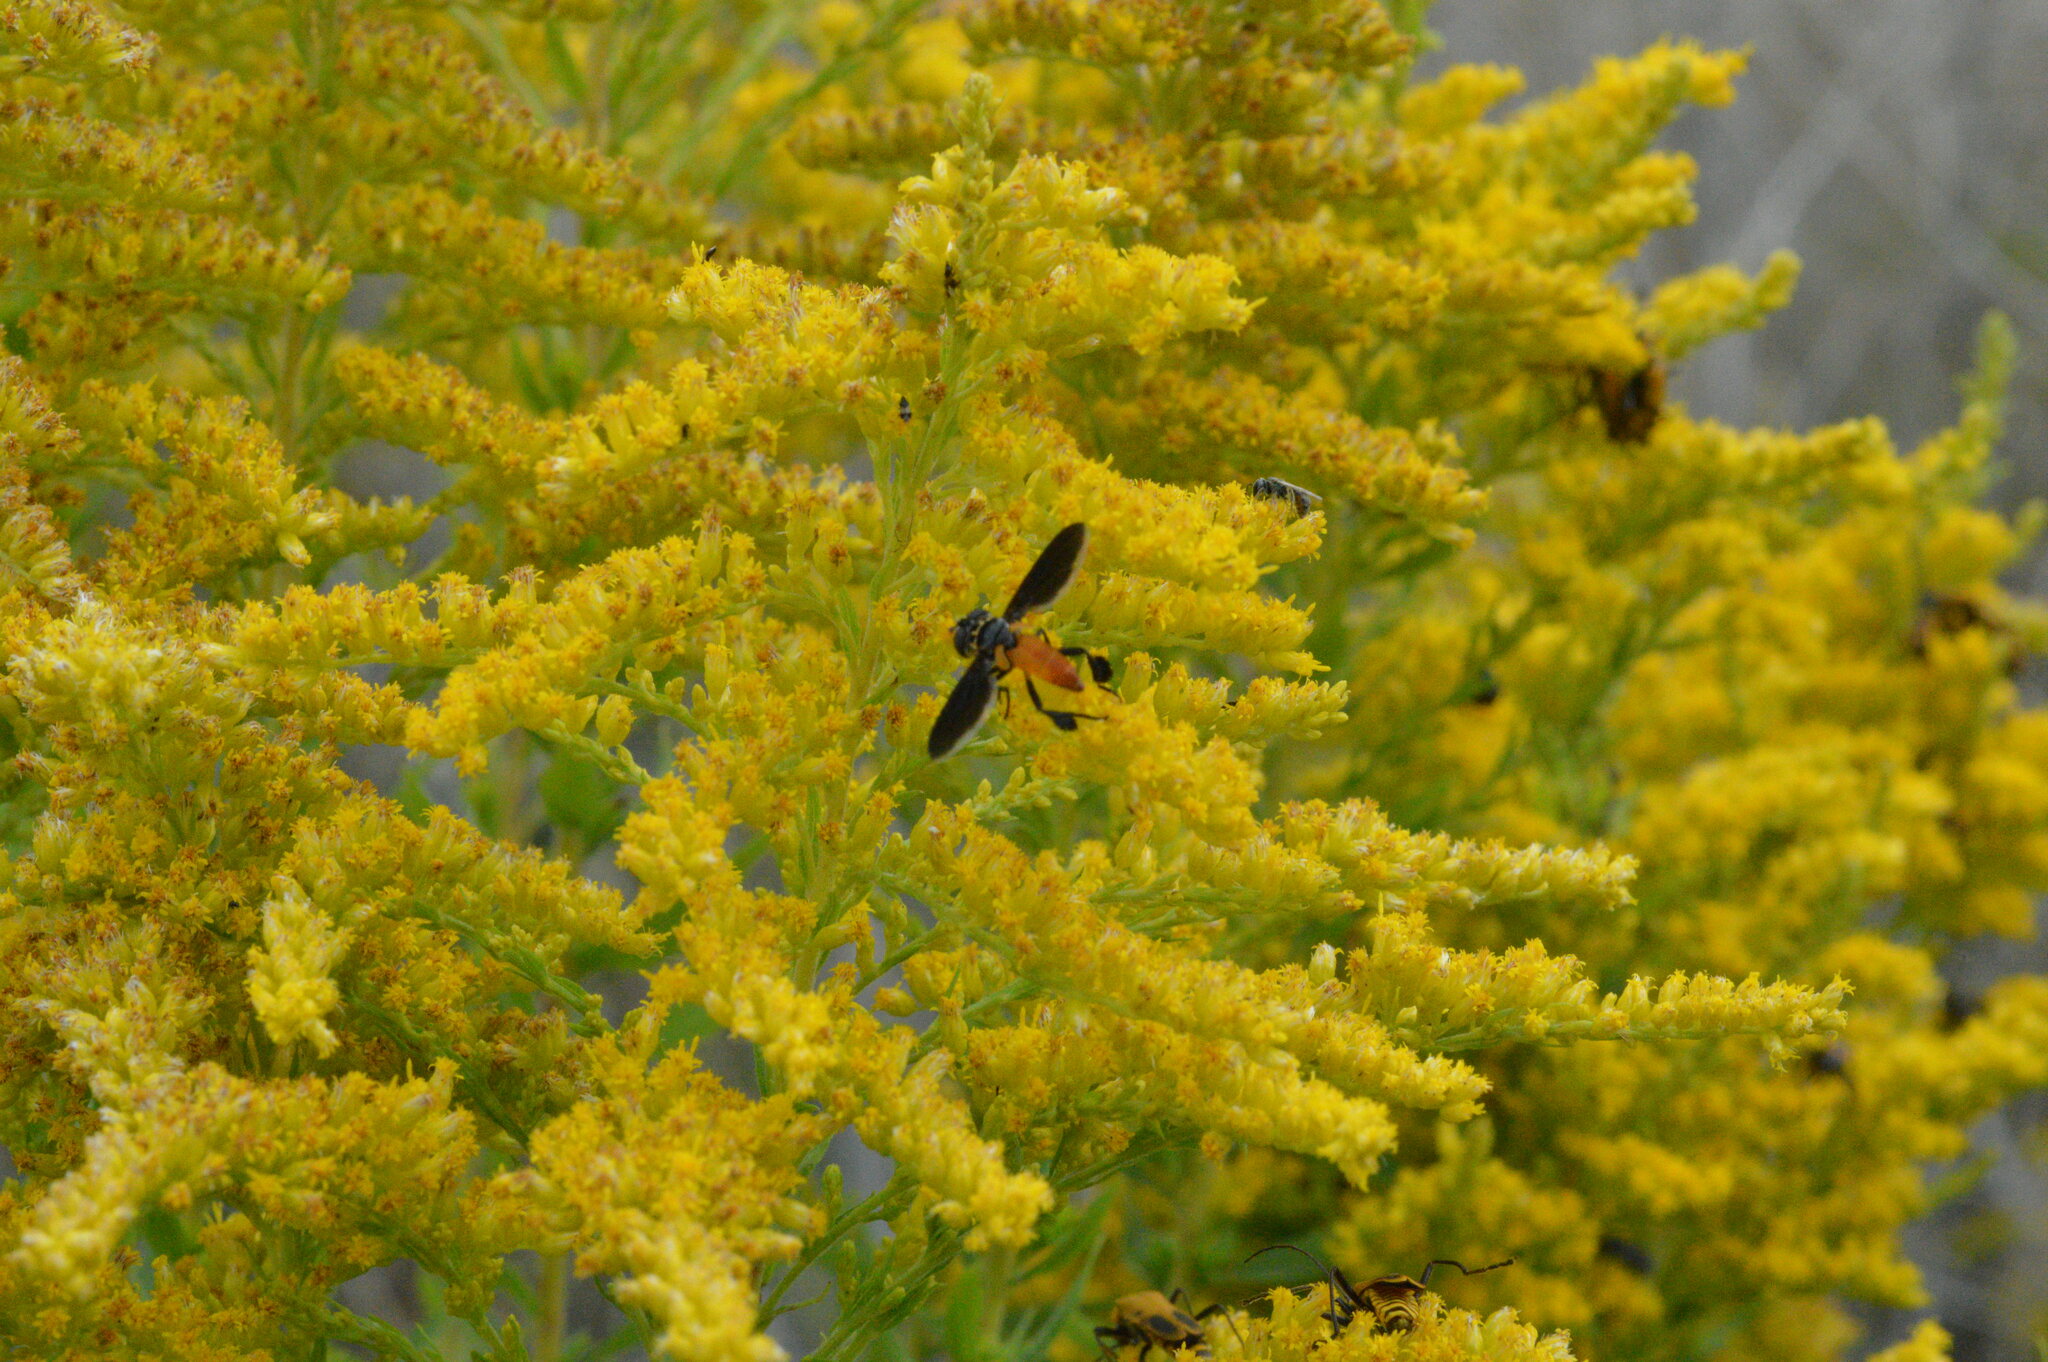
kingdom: Animalia
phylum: Arthropoda
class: Insecta
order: Diptera
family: Tachinidae
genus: Trichopoda
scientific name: Trichopoda pennipes
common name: Tachinid fly
